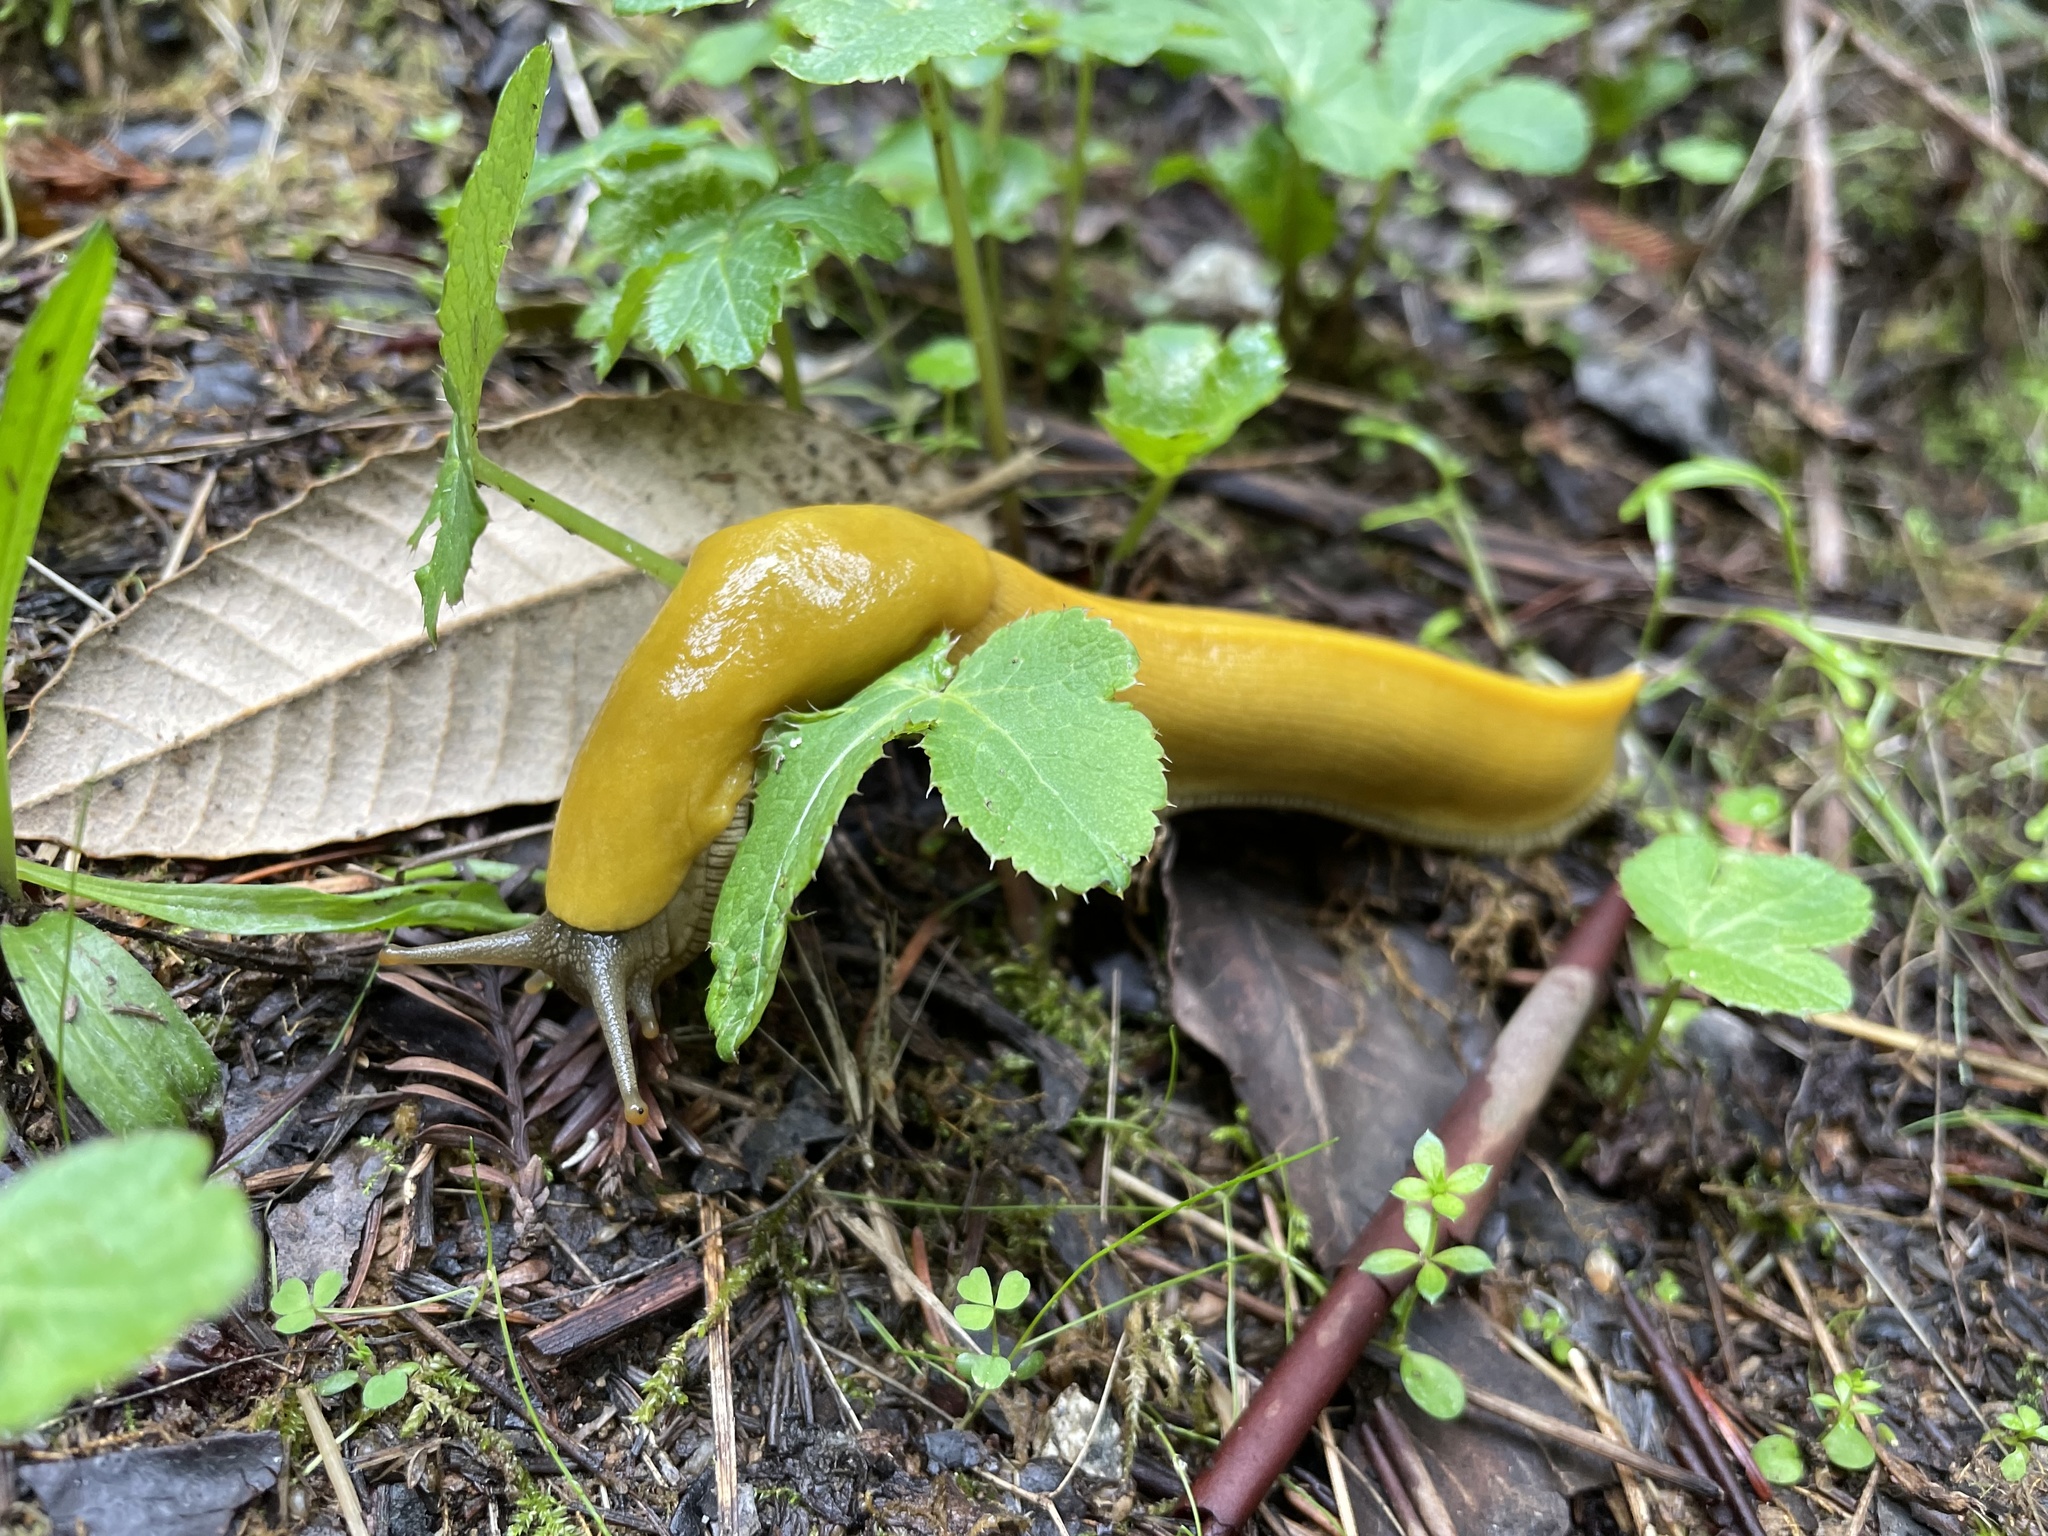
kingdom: Animalia
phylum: Mollusca
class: Gastropoda
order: Stylommatophora
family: Ariolimacidae
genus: Ariolimax
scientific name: Ariolimax californicus
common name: California banana slug
